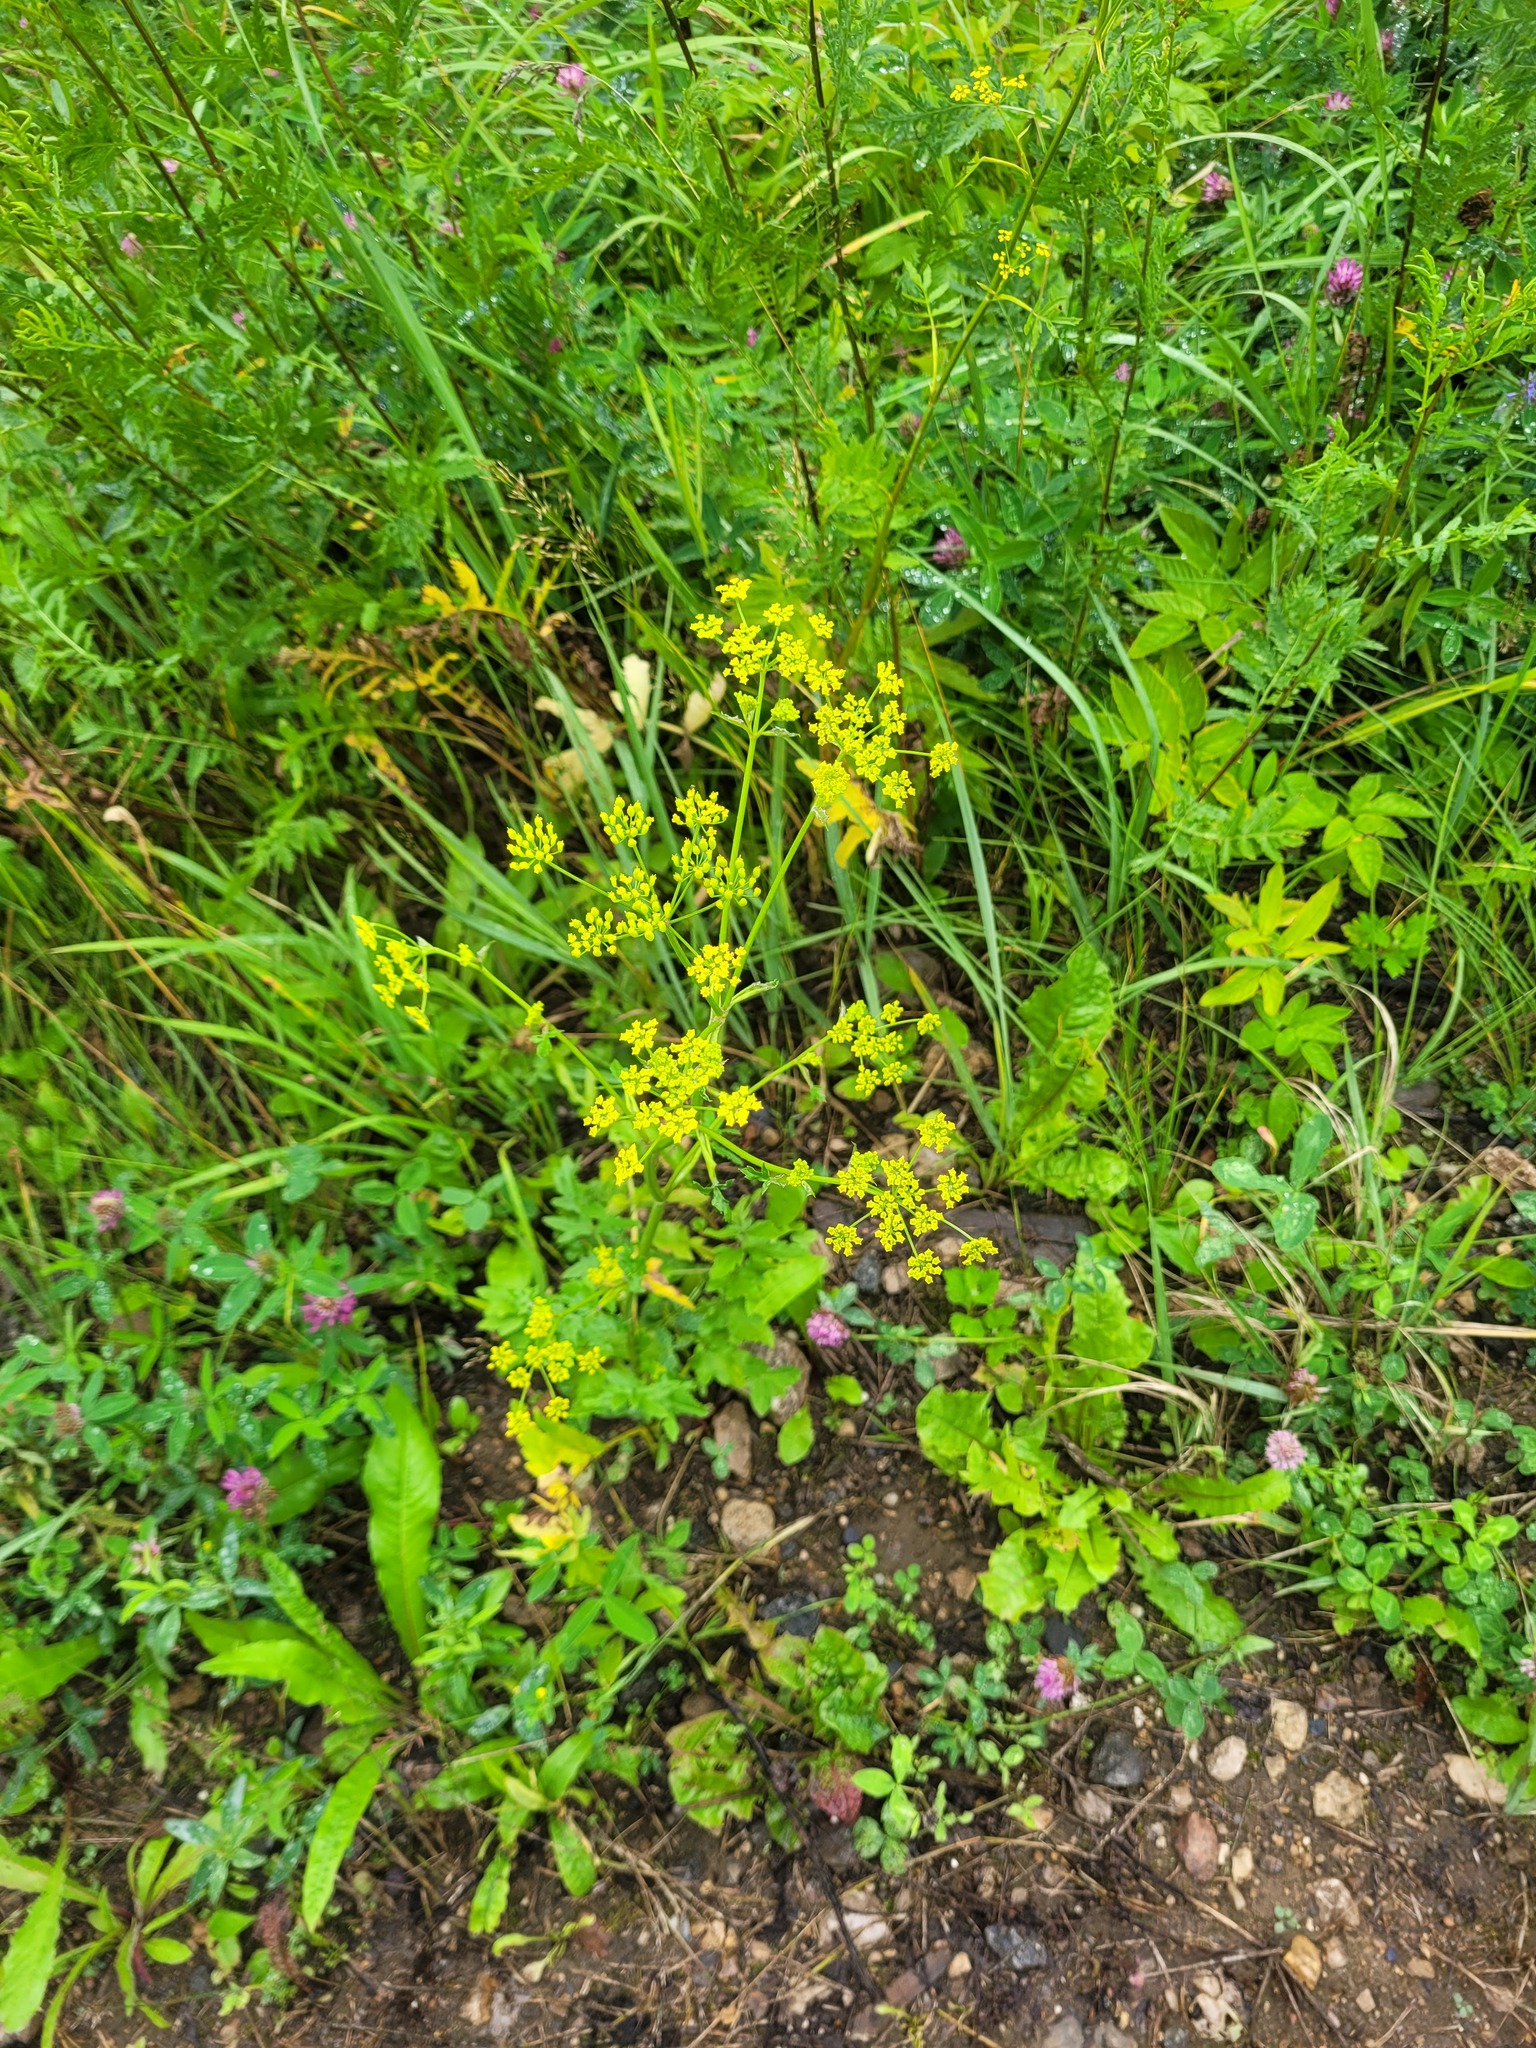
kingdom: Plantae
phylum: Tracheophyta
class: Magnoliopsida
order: Apiales
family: Apiaceae
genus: Pastinaca
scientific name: Pastinaca sativa
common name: Wild parsnip
